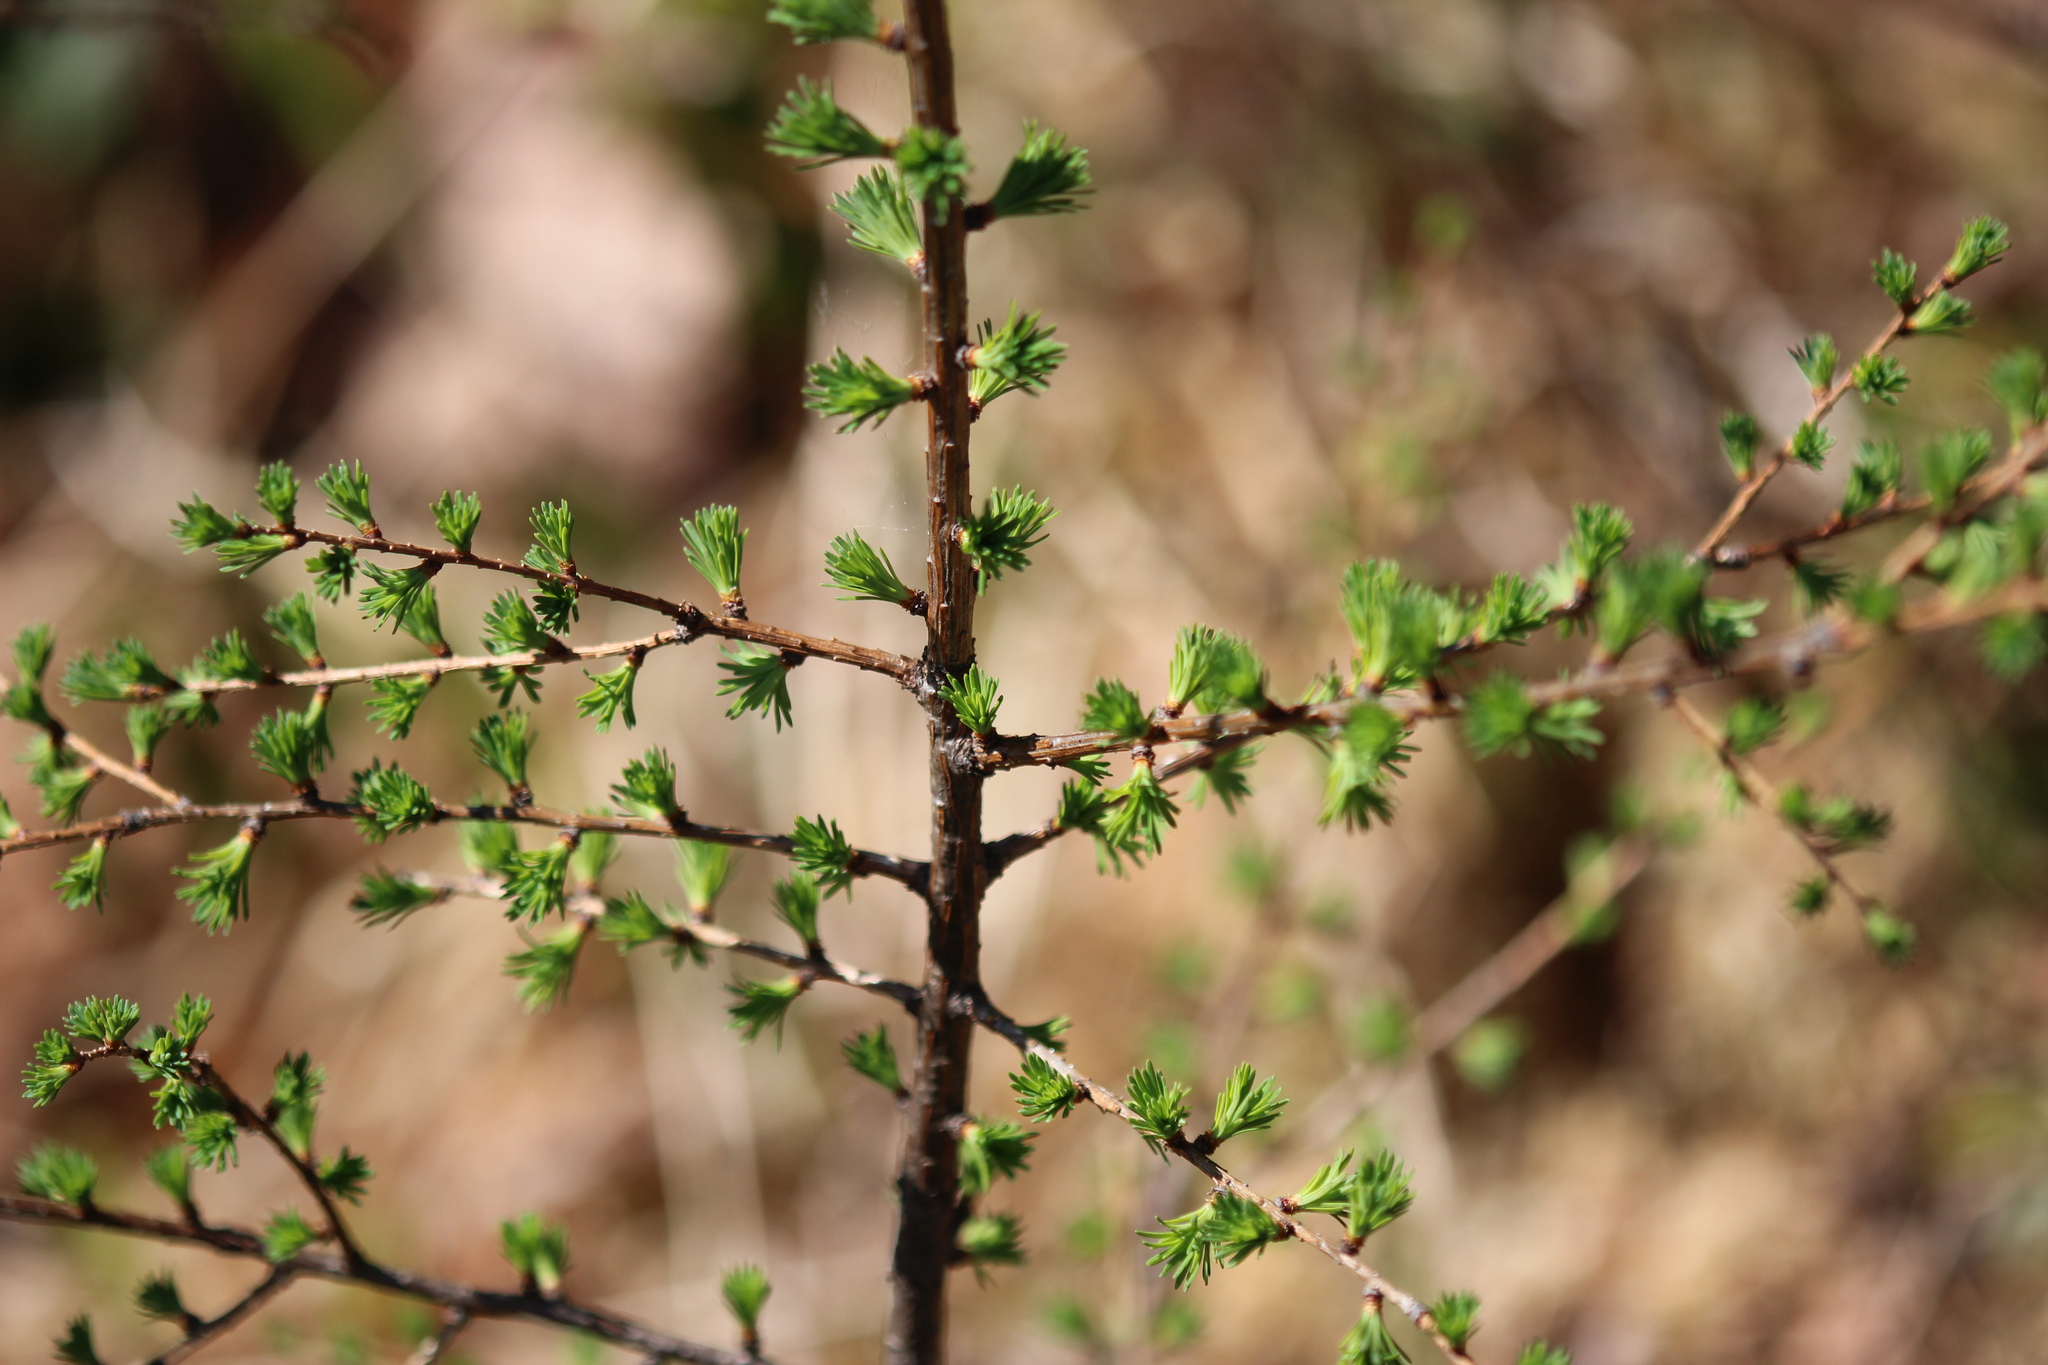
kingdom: Plantae
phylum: Tracheophyta
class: Pinopsida
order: Pinales
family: Pinaceae
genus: Larix
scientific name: Larix laricina
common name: American larch
